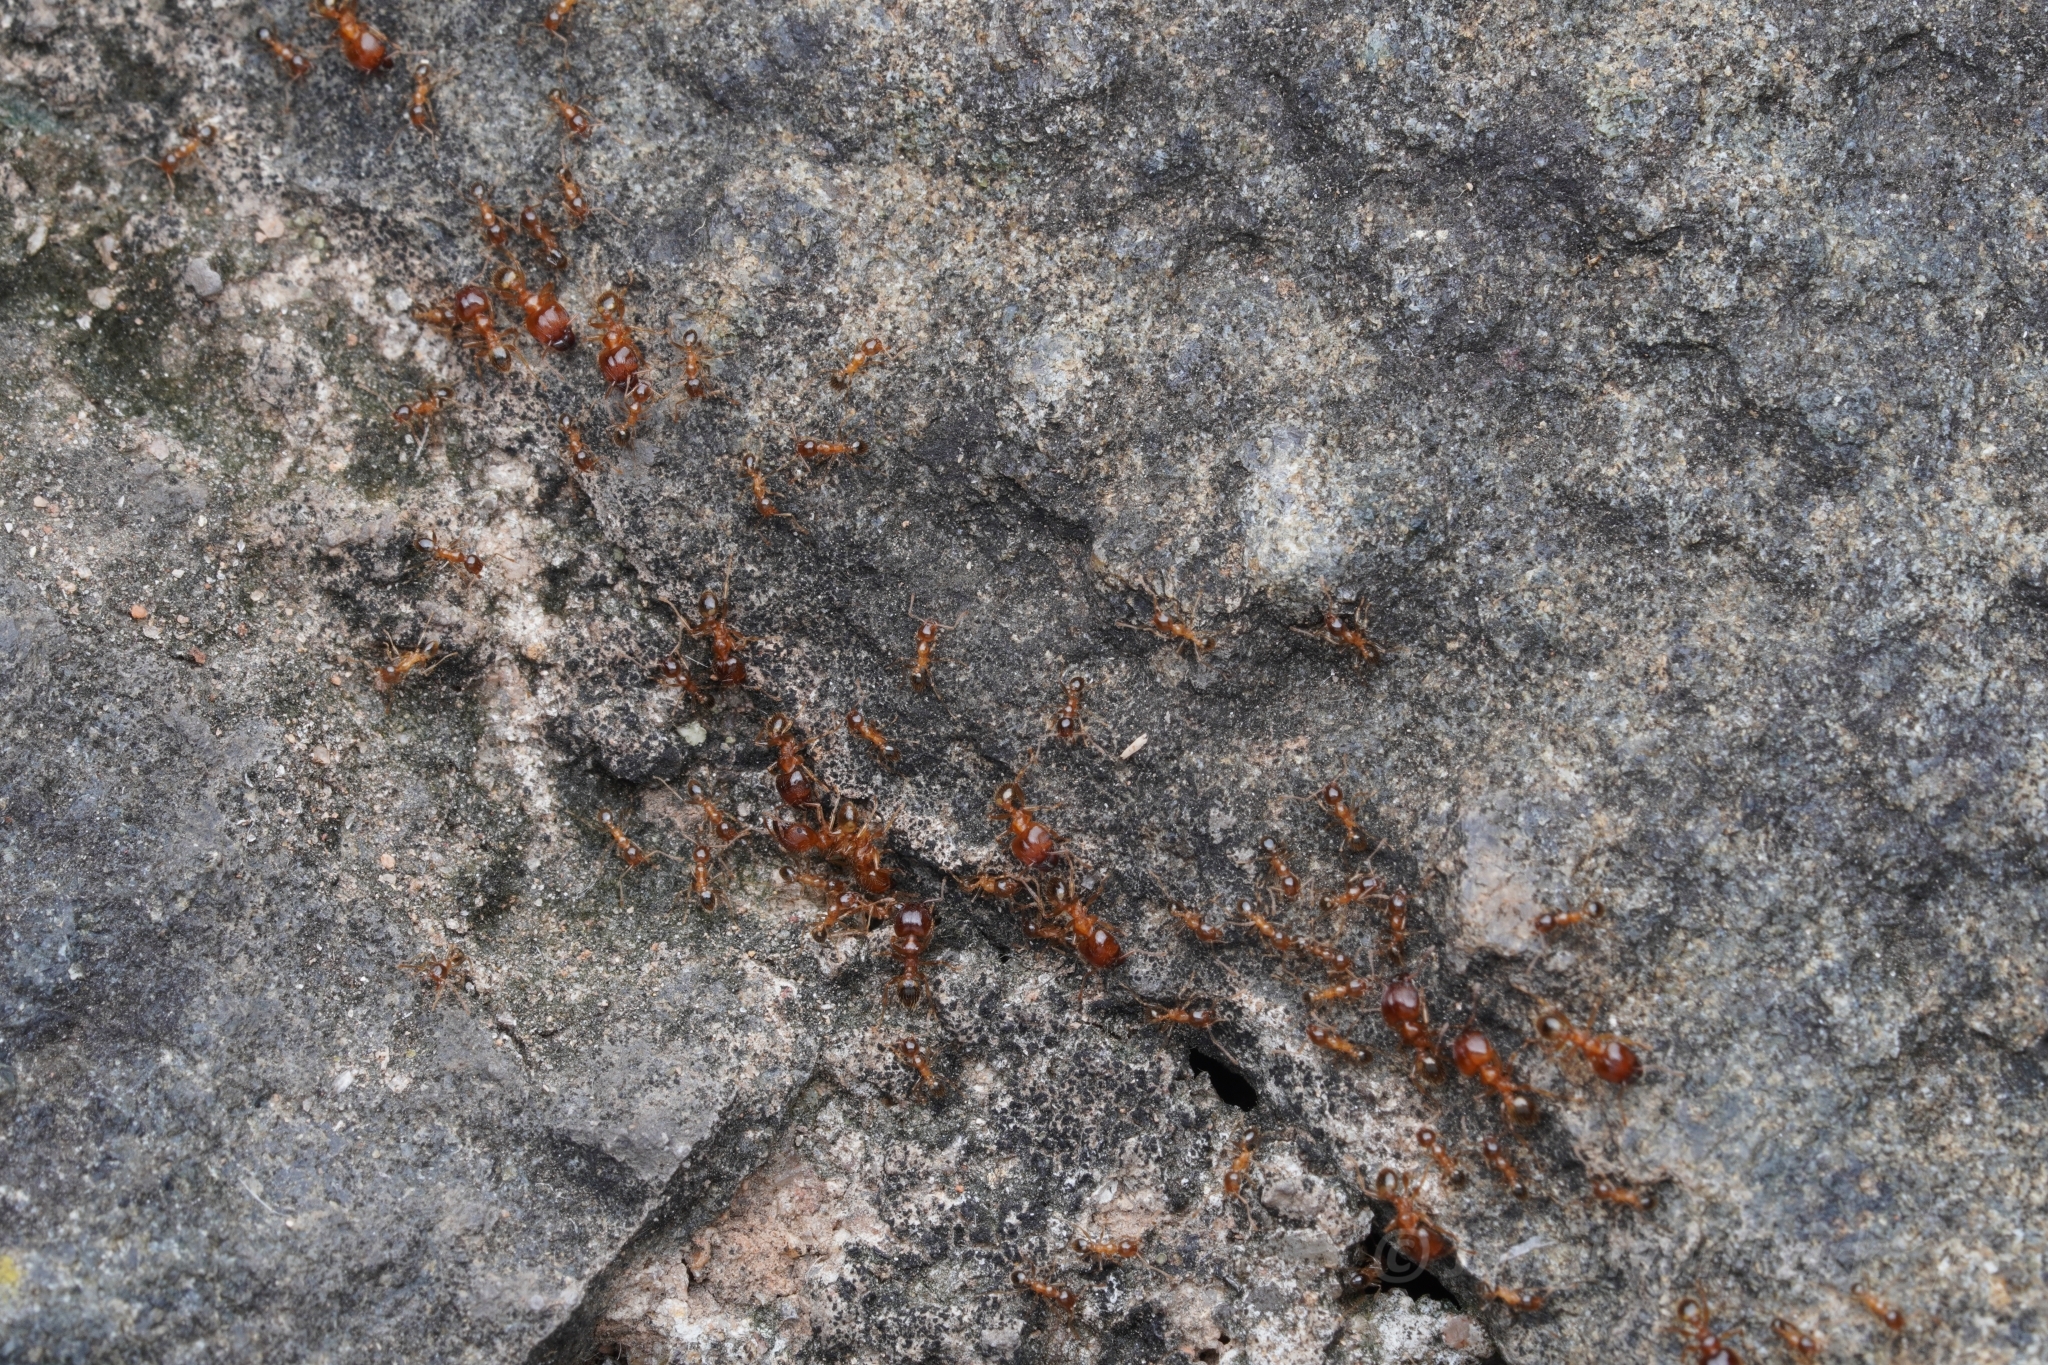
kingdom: Animalia
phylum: Arthropoda
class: Insecta
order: Hymenoptera
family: Formicidae
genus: Pheidole
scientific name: Pheidole megacephala
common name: Bigheaded ant
